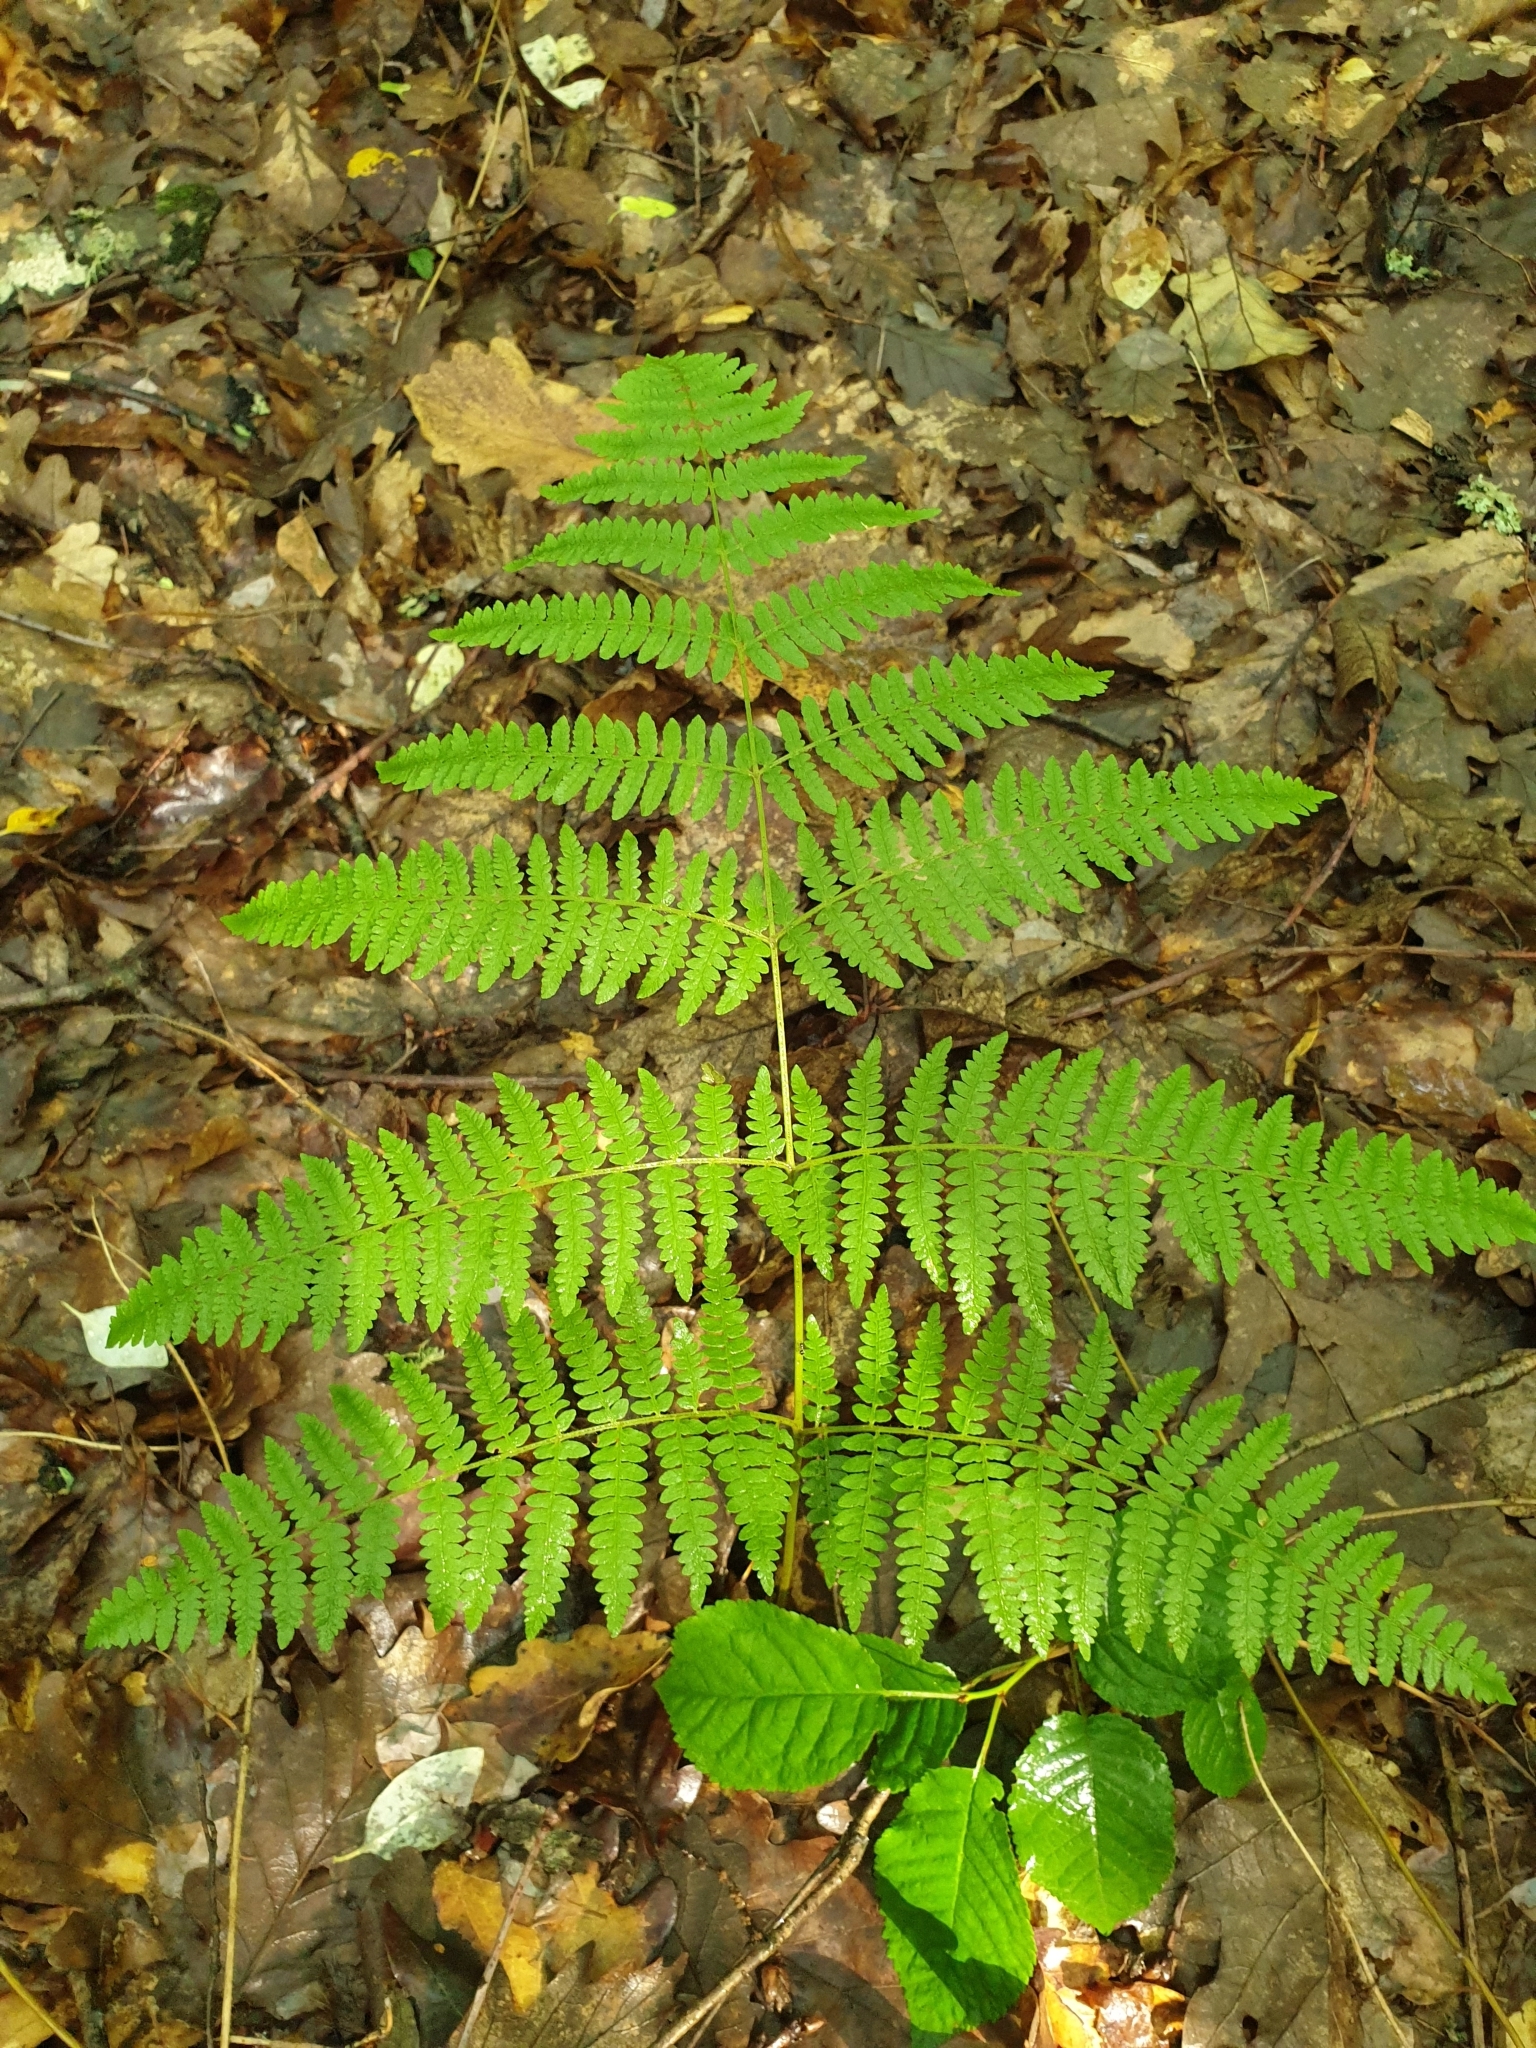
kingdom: Plantae
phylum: Tracheophyta
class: Polypodiopsida
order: Polypodiales
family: Dennstaedtiaceae
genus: Pteridium
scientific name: Pteridium tauricum
